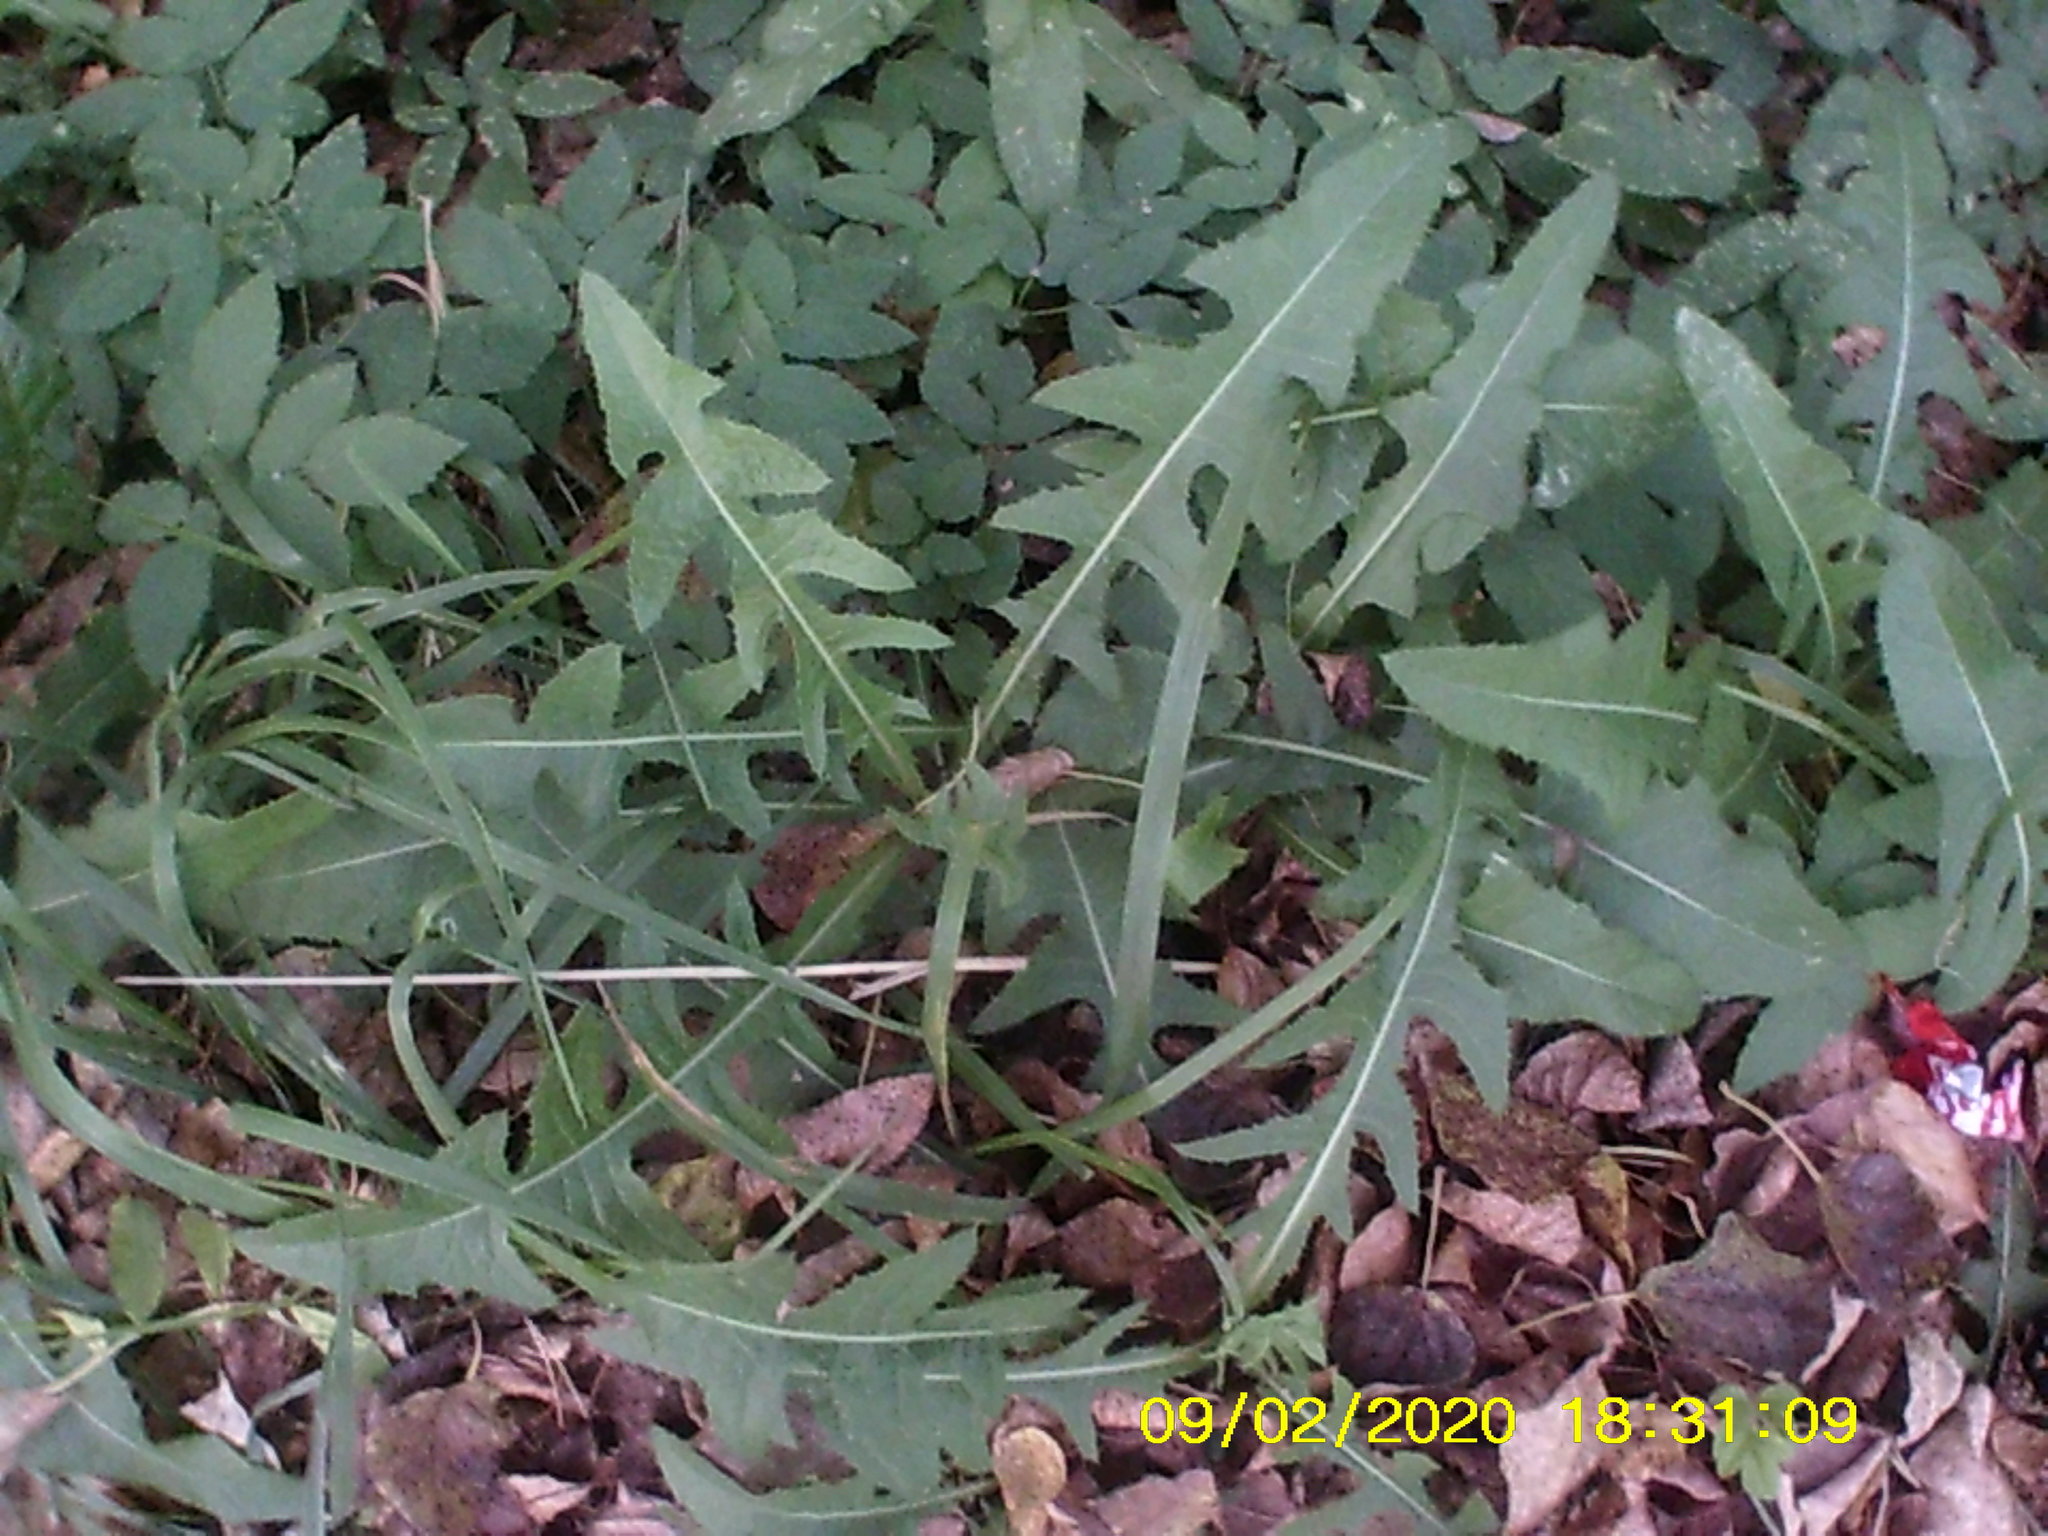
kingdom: Plantae
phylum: Tracheophyta
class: Magnoliopsida
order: Asterales
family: Asteraceae
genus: Sonchus
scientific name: Sonchus arvensis
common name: Perennial sow-thistle
